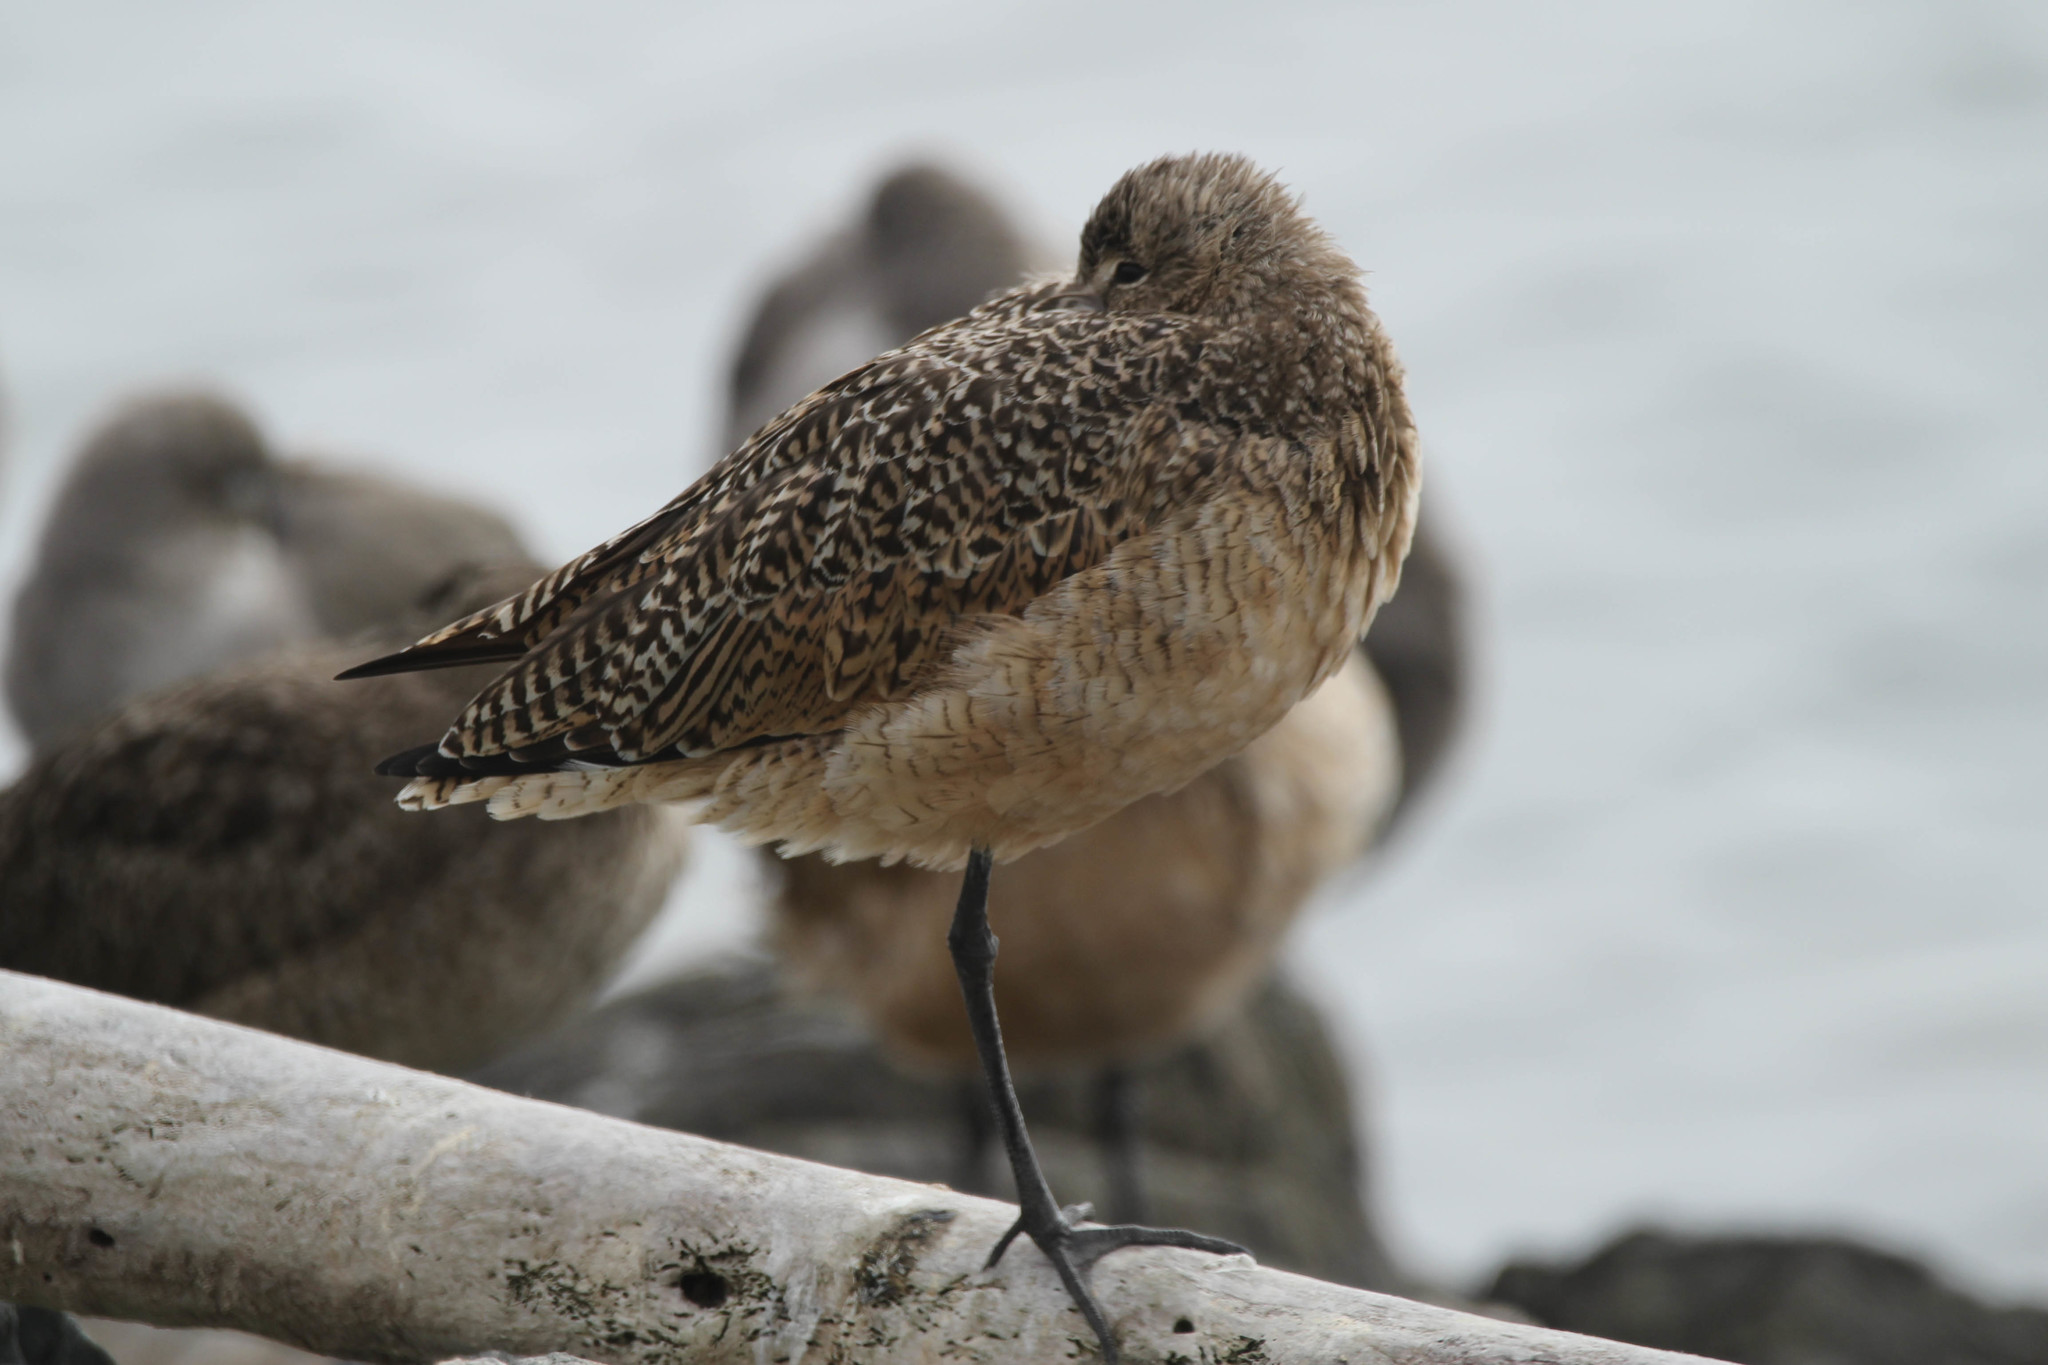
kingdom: Animalia
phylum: Chordata
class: Aves
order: Charadriiformes
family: Scolopacidae
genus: Limosa
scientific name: Limosa fedoa
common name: Marbled godwit
